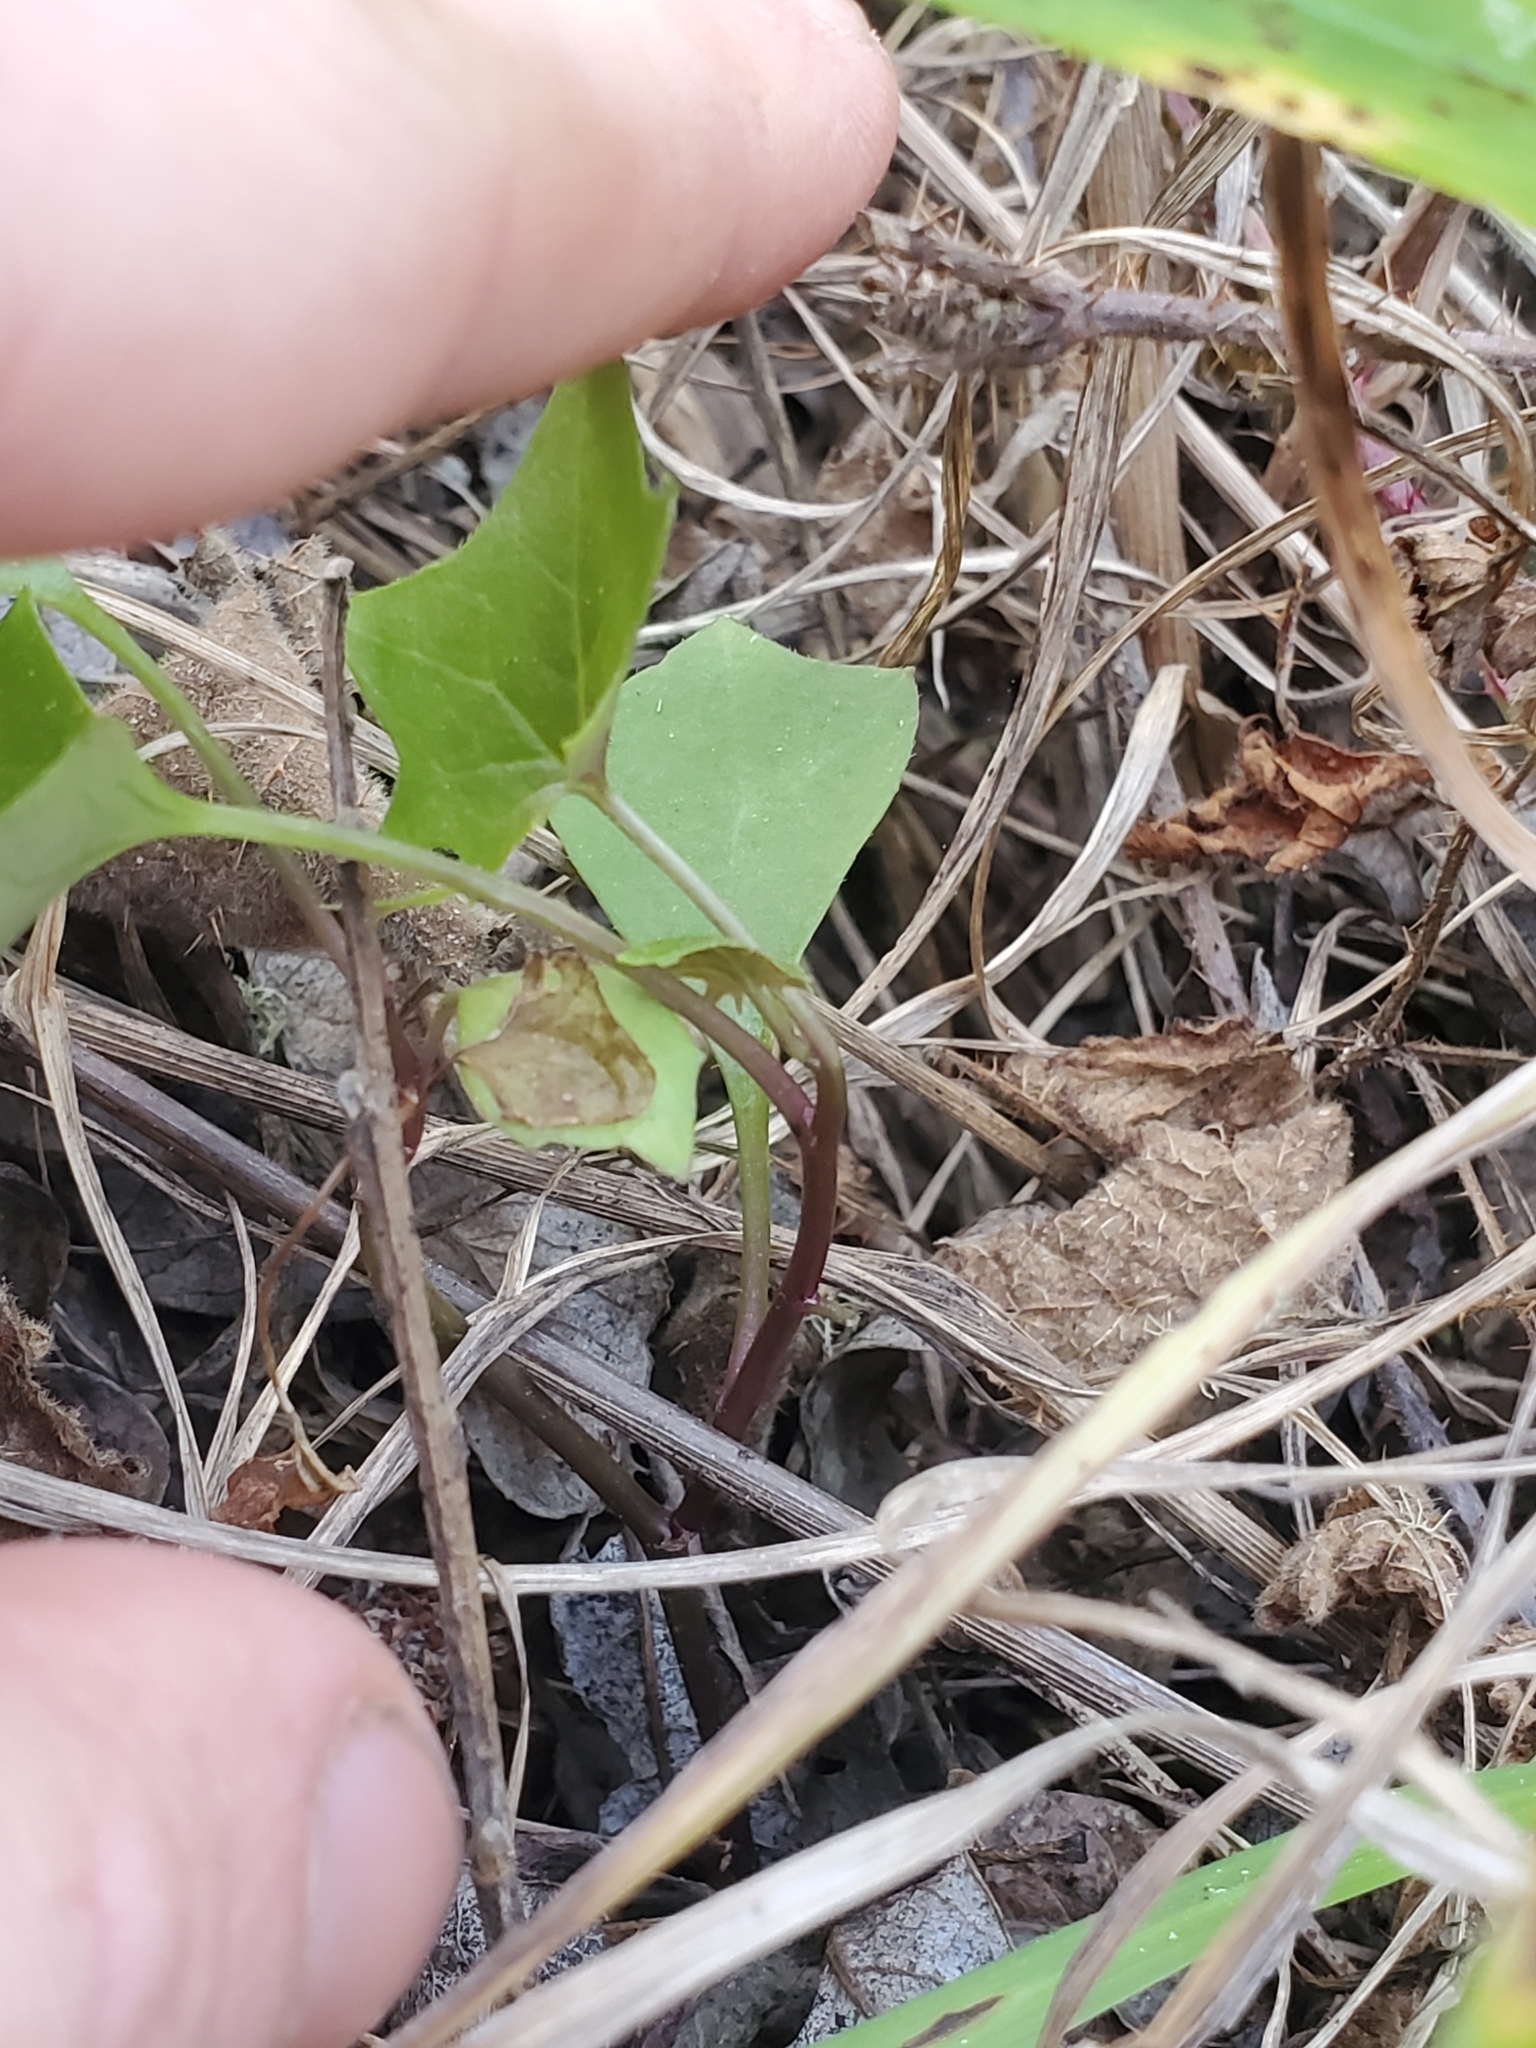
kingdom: Plantae
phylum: Tracheophyta
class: Magnoliopsida
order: Asterales
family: Asteraceae
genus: Delairea
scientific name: Delairea odorata
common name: Cape-ivy
